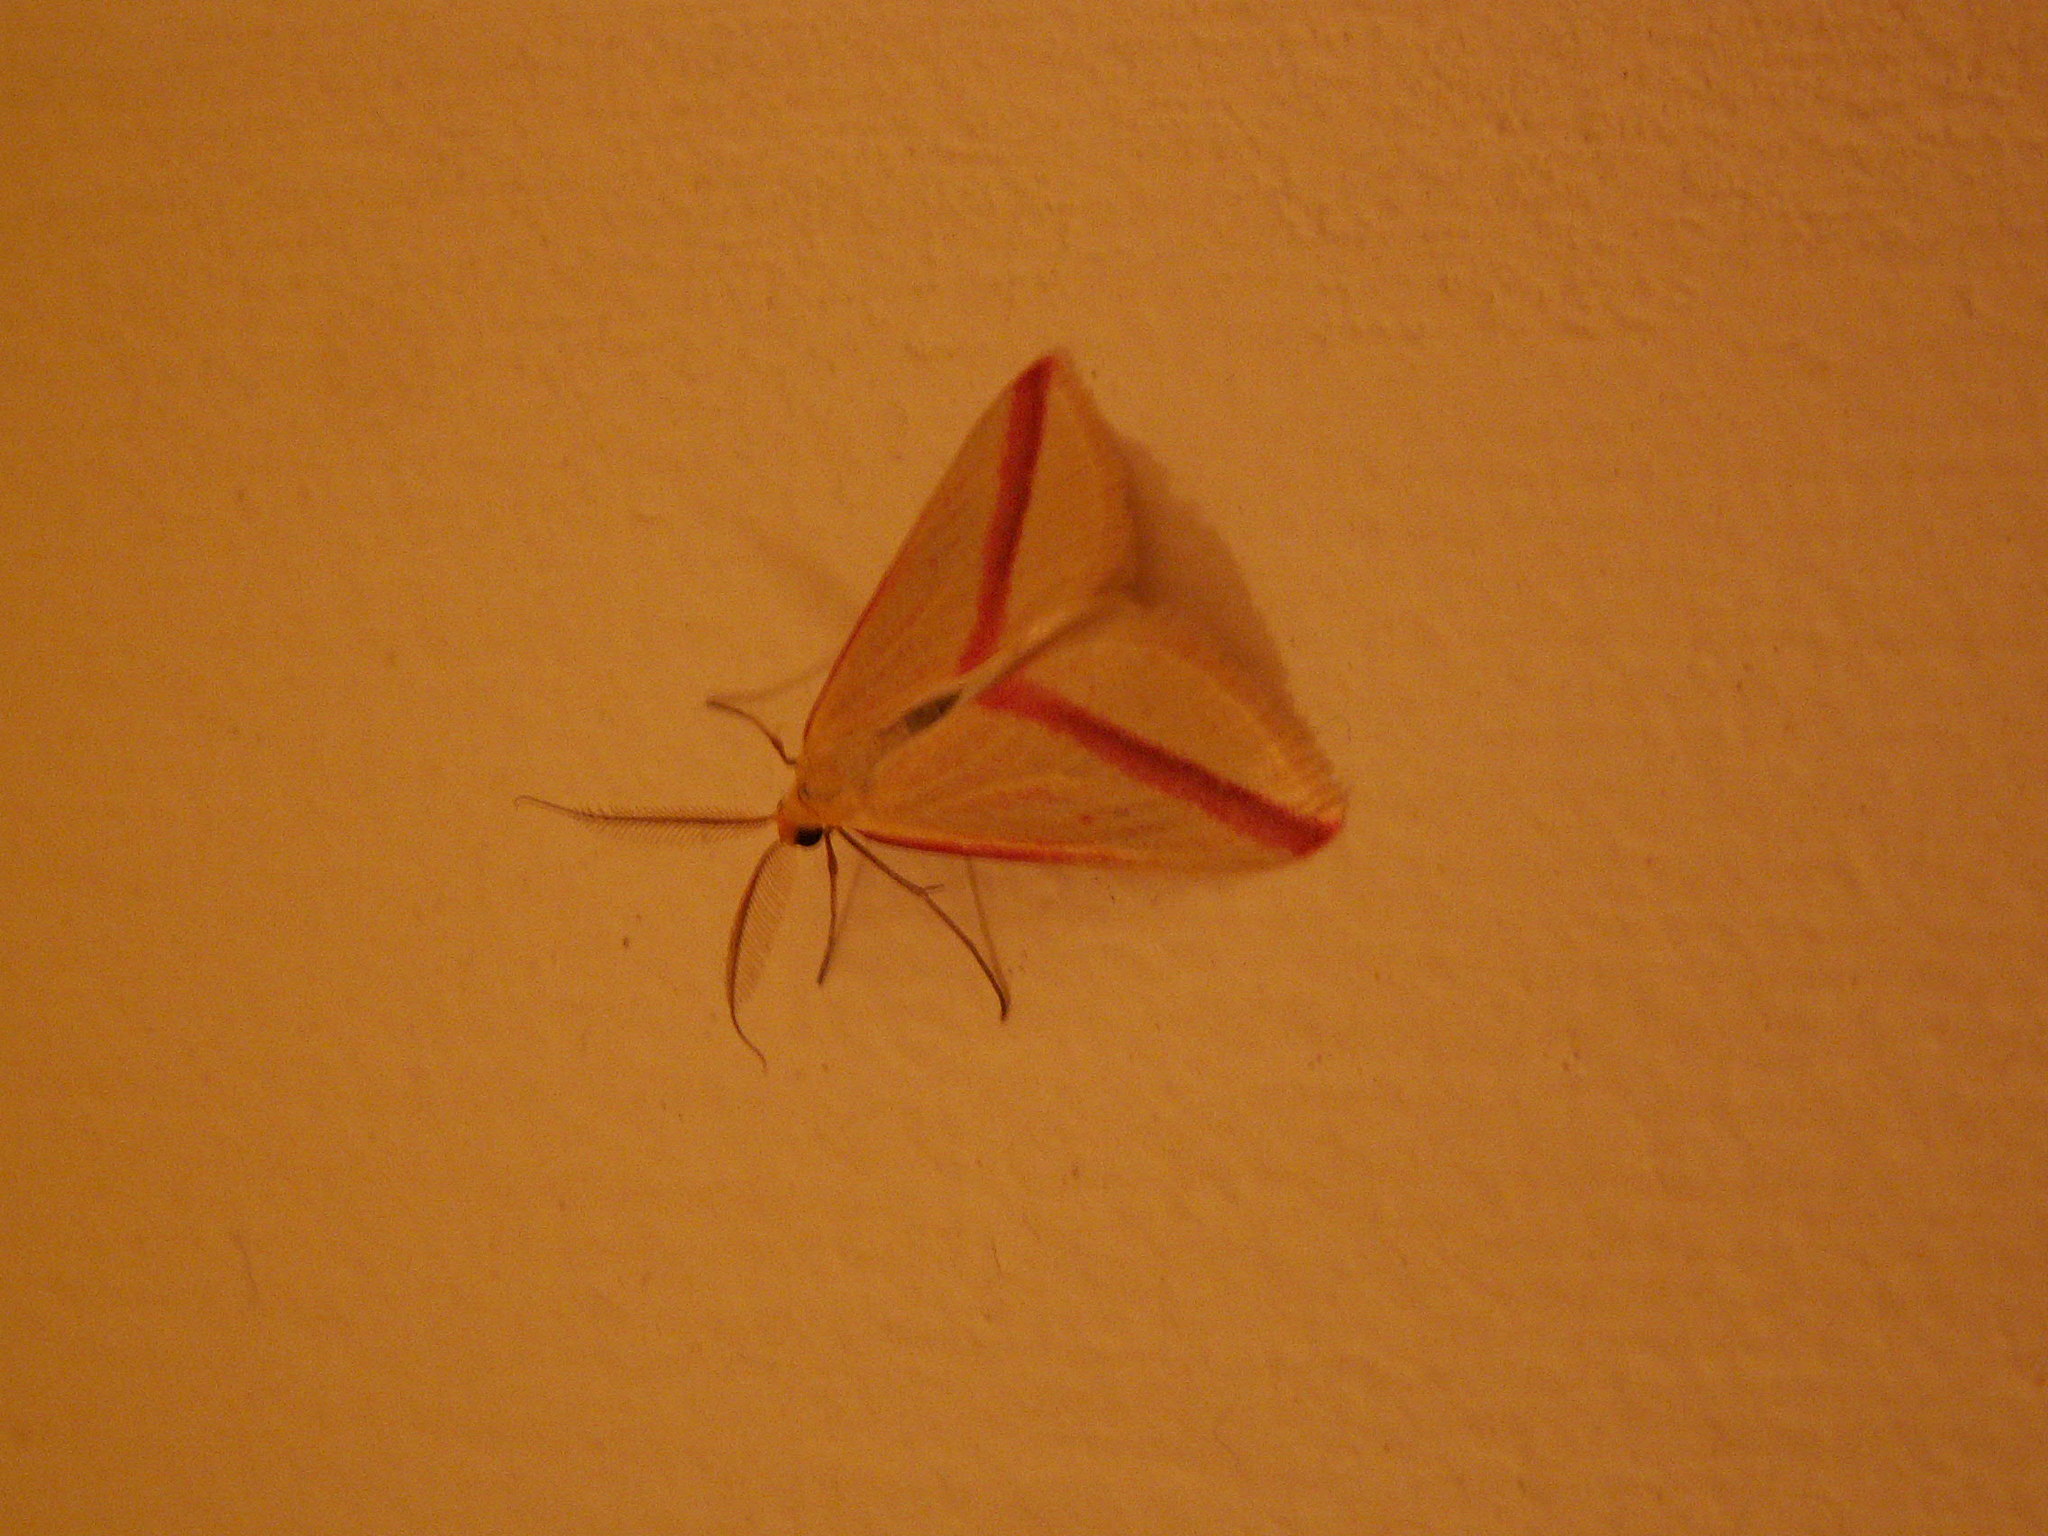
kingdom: Animalia
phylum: Arthropoda
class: Insecta
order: Lepidoptera
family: Geometridae
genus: Rhodometra
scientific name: Rhodometra sacraria
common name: Vestal
